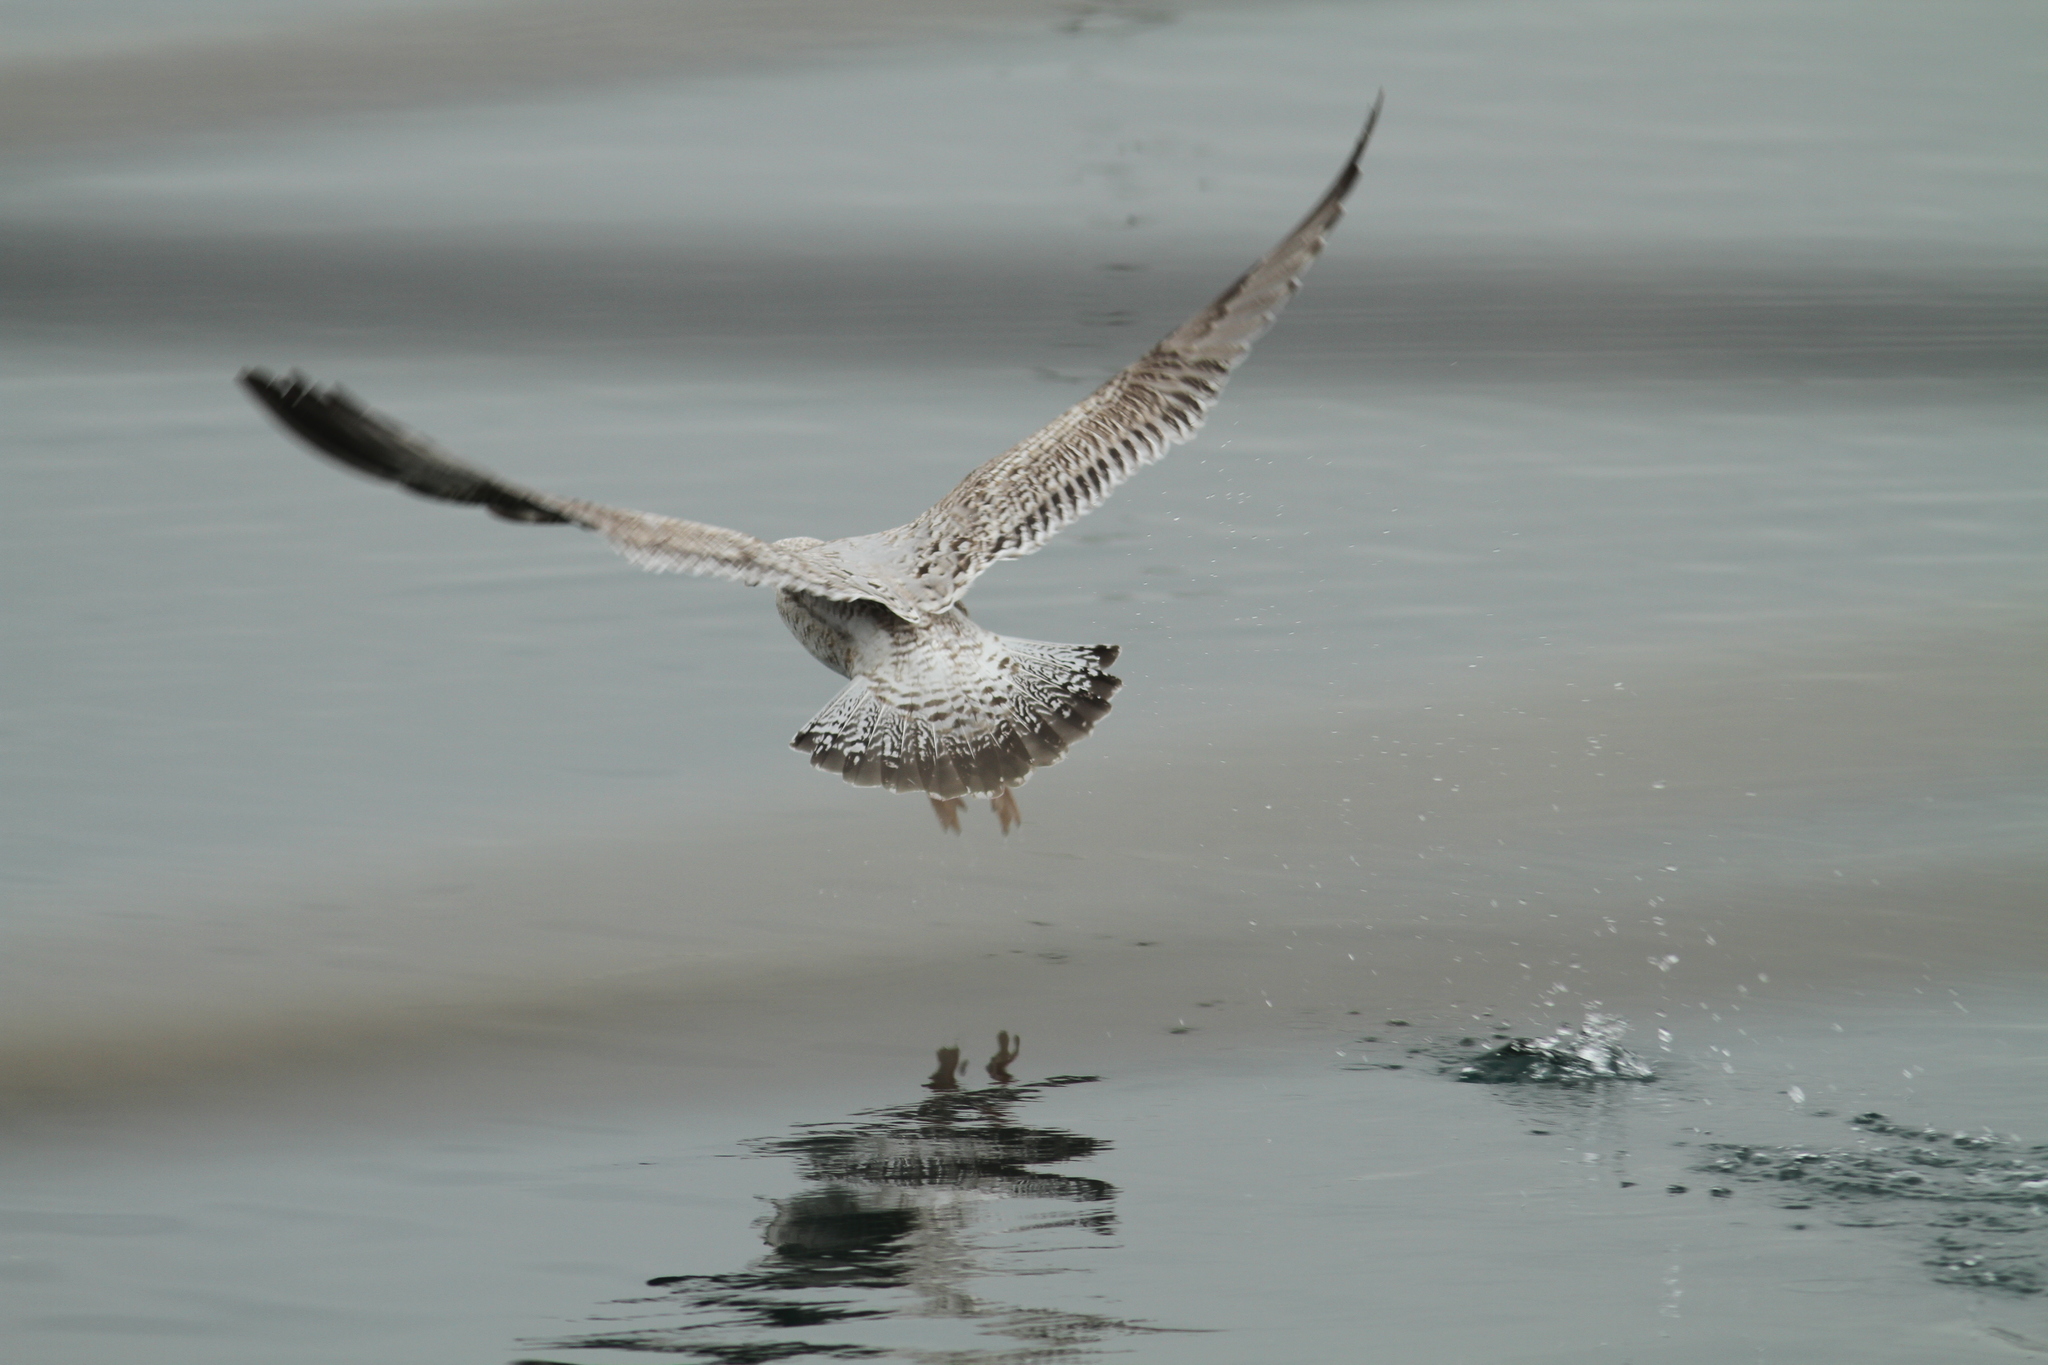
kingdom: Animalia
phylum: Chordata
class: Aves
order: Charadriiformes
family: Laridae
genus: Larus
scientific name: Larus argentatus
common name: Herring gull
